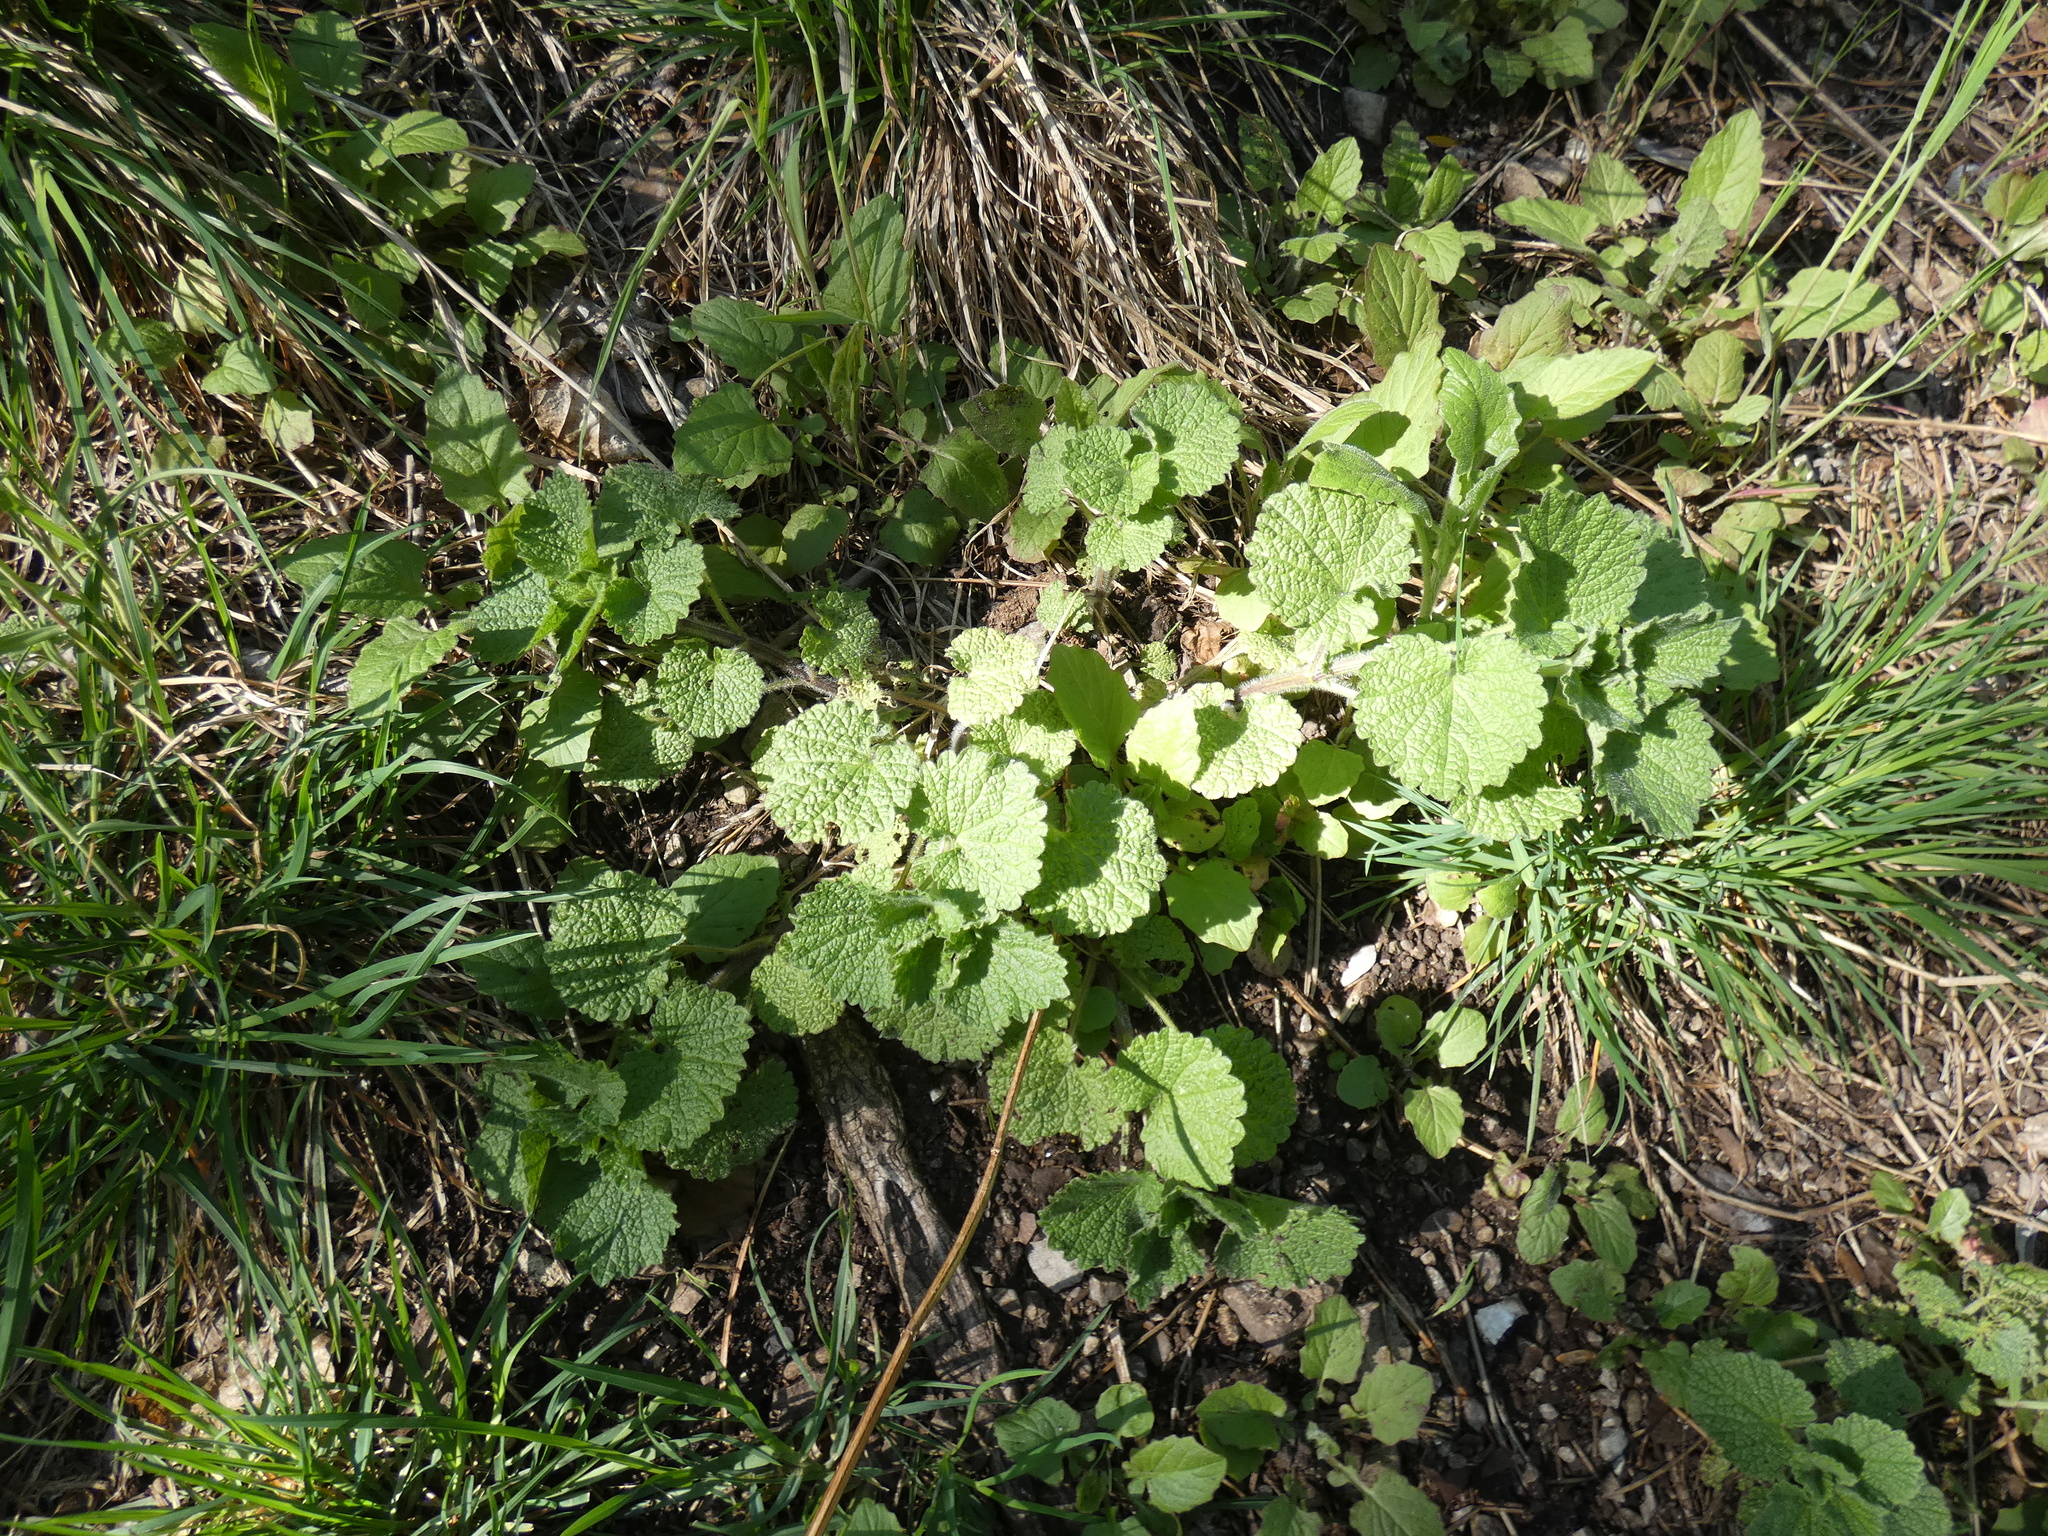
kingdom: Plantae
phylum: Tracheophyta
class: Magnoliopsida
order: Lamiales
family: Lamiaceae
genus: Ballota
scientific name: Ballota nigra
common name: Black horehound
